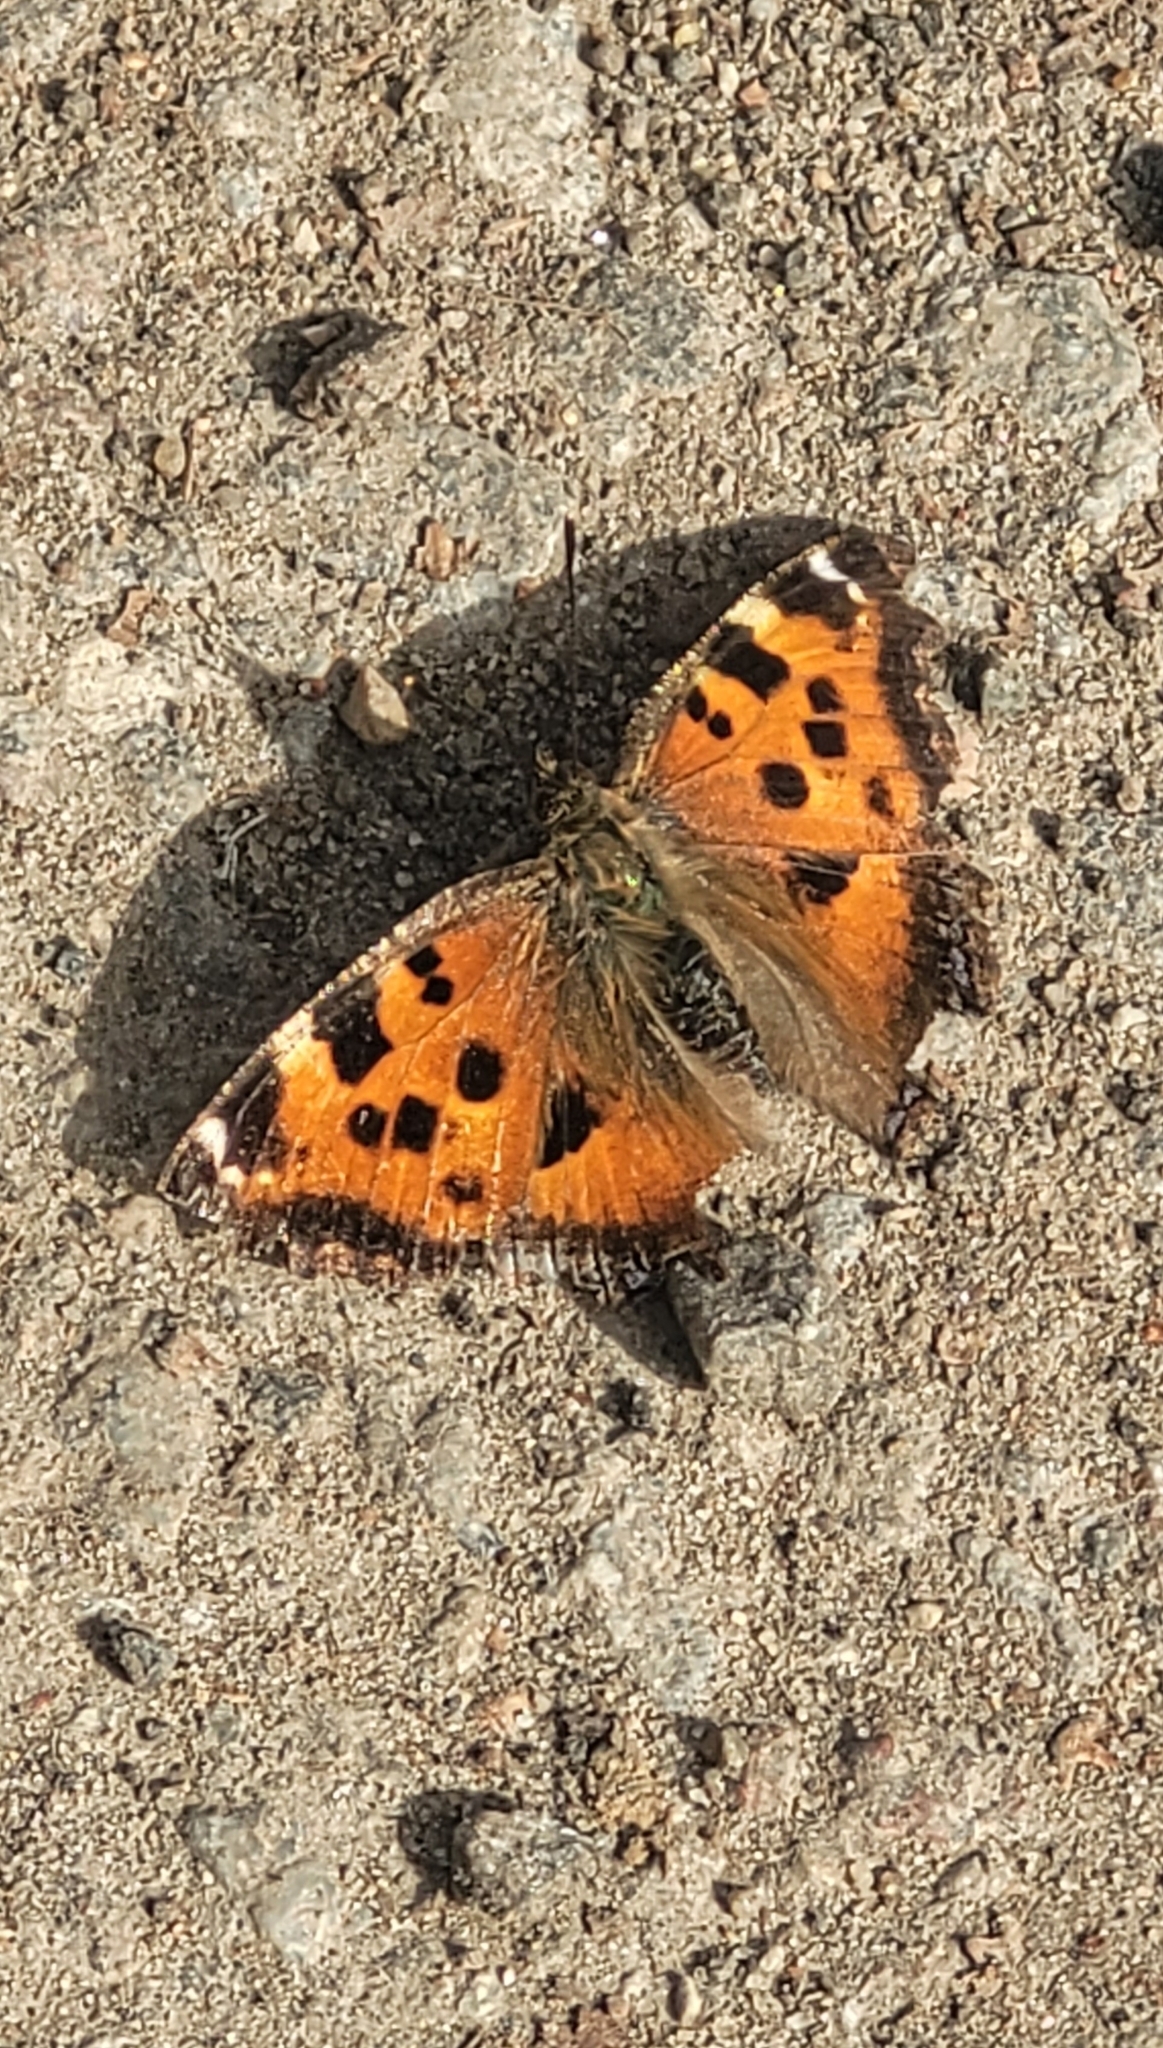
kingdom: Animalia
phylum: Arthropoda
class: Insecta
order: Lepidoptera
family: Nymphalidae
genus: Nymphalis
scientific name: Nymphalis xanthomelas
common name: Scarce tortoiseshell
